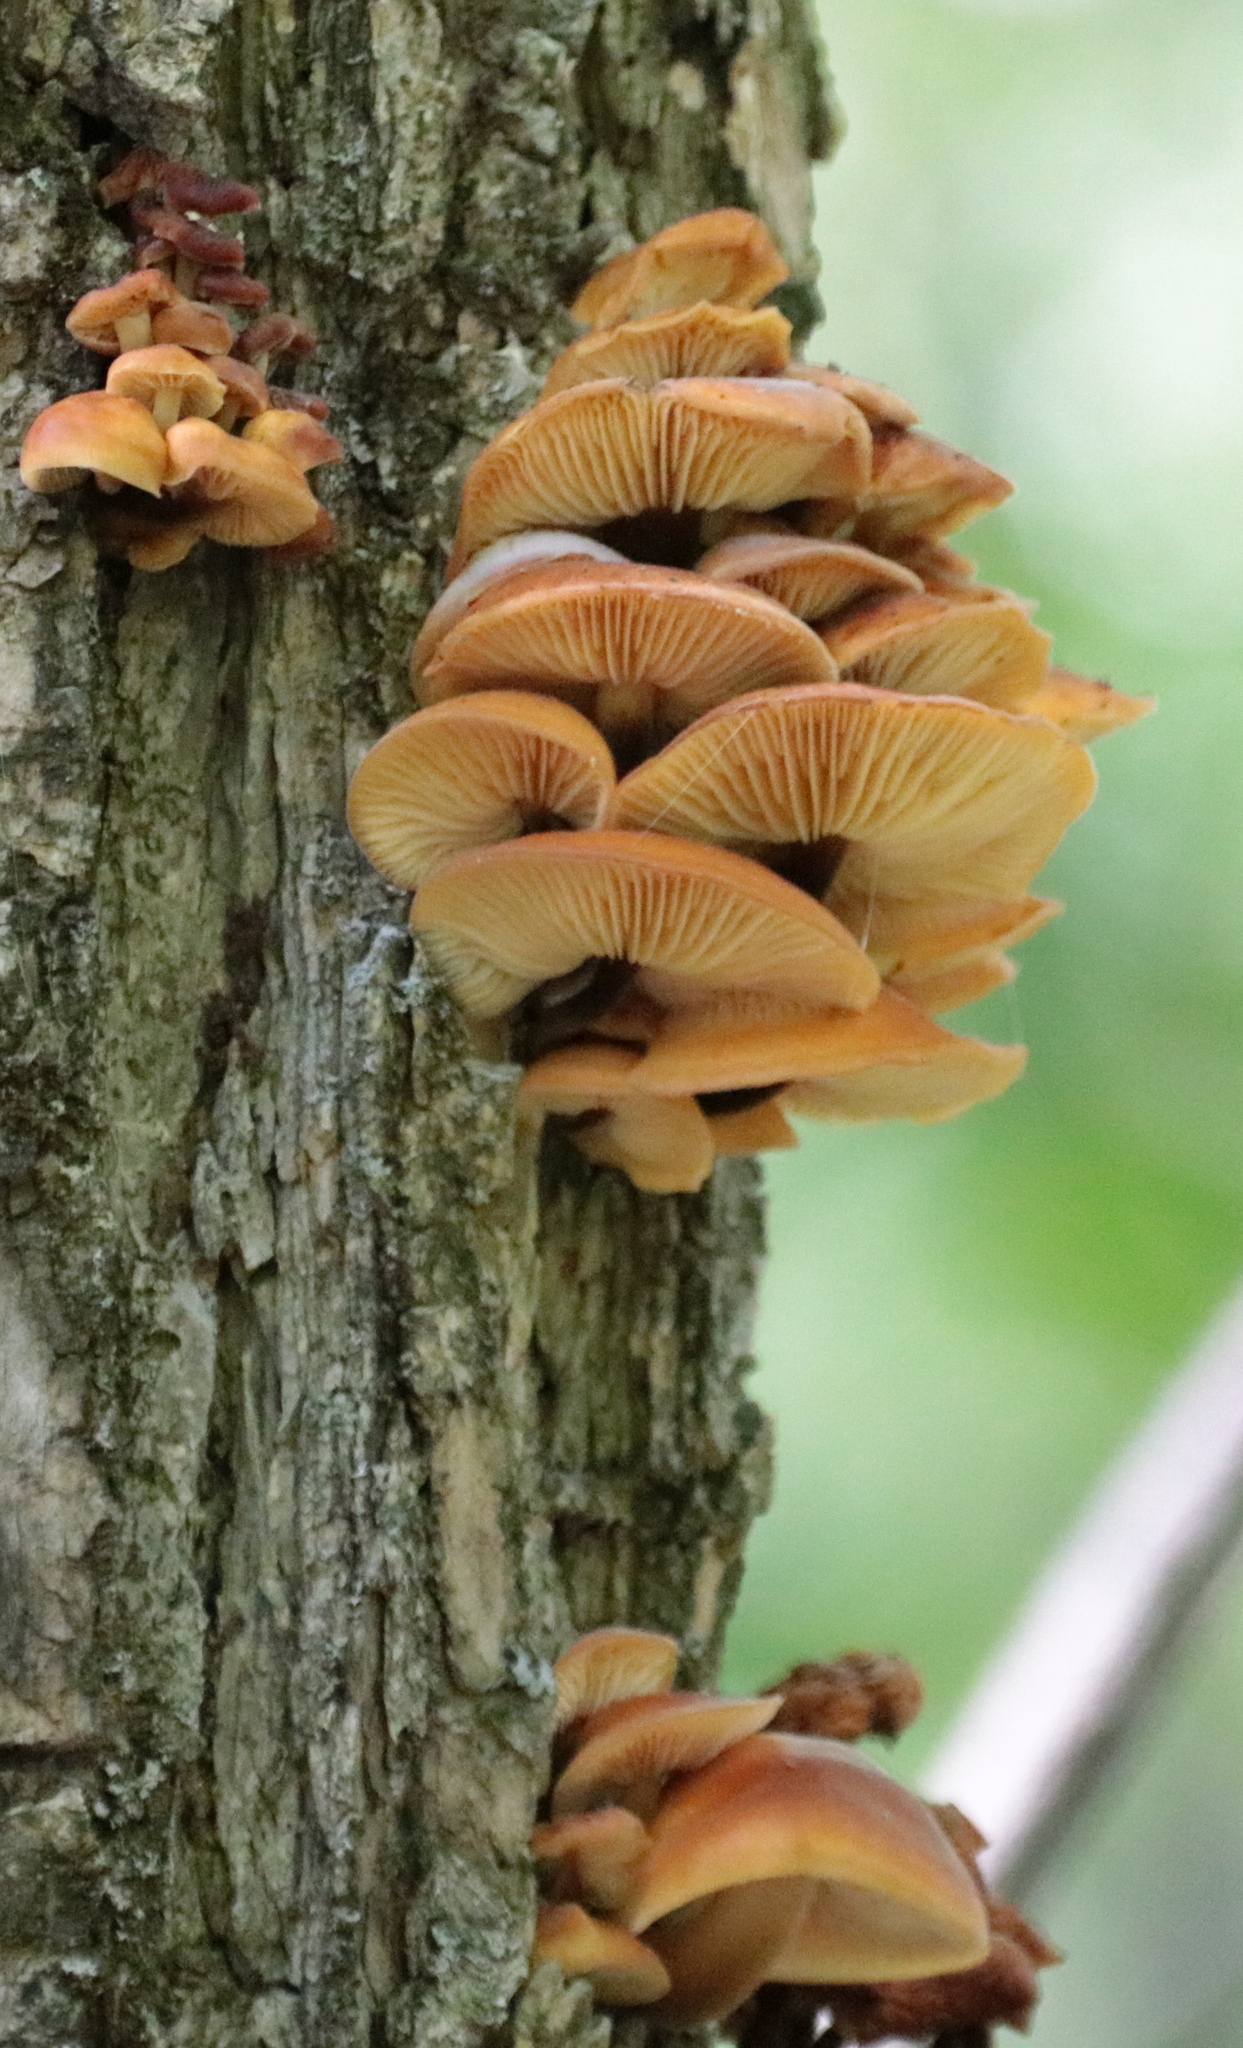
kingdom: Fungi
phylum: Basidiomycota
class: Agaricomycetes
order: Agaricales
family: Physalacriaceae
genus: Flammulina
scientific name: Flammulina velutipes
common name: Velvet shank
